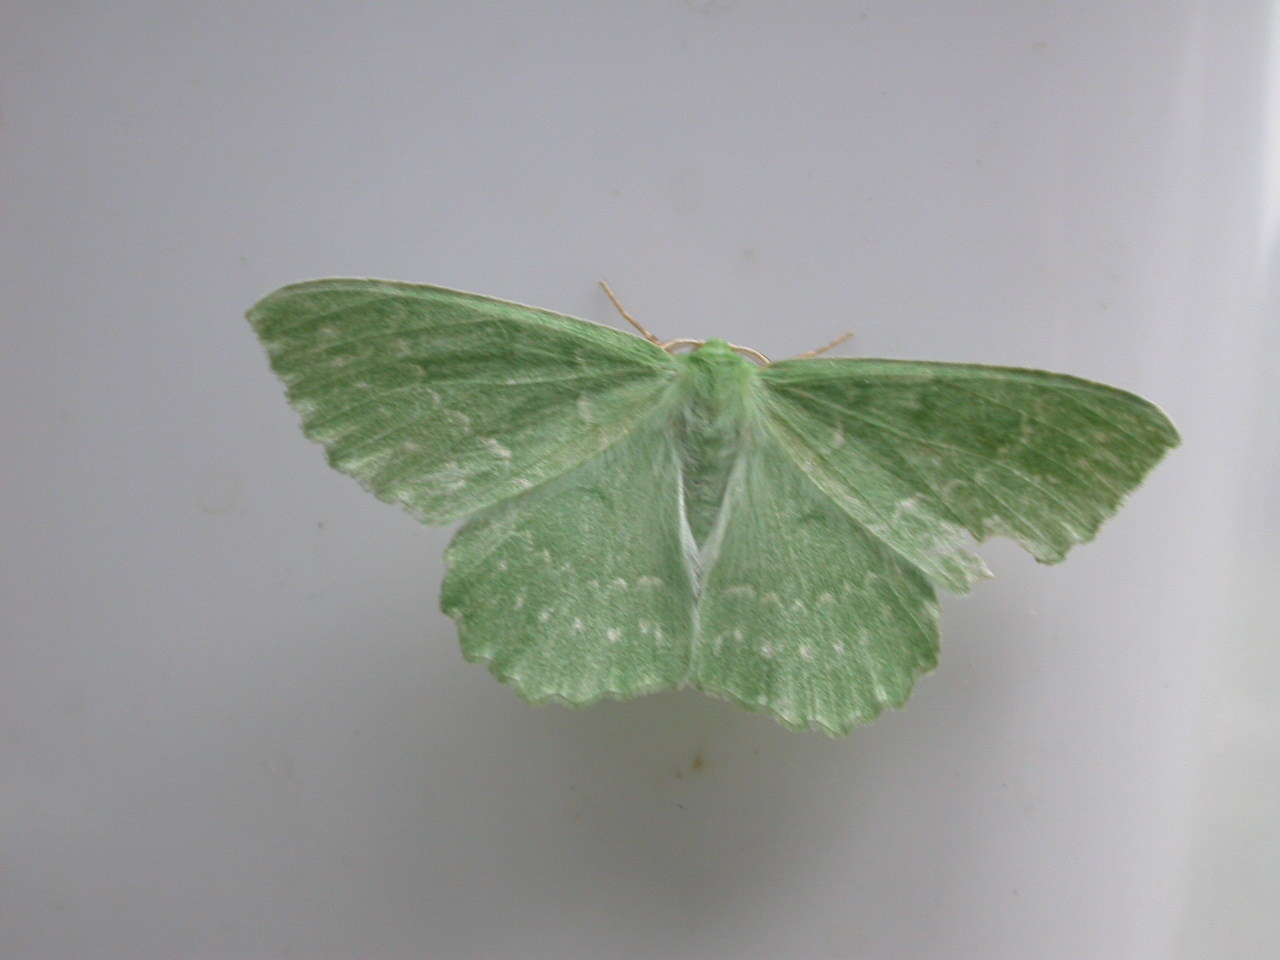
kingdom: Animalia
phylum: Arthropoda
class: Insecta
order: Lepidoptera
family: Geometridae
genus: Geometra
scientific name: Geometra papilionaria
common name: Large emerald
